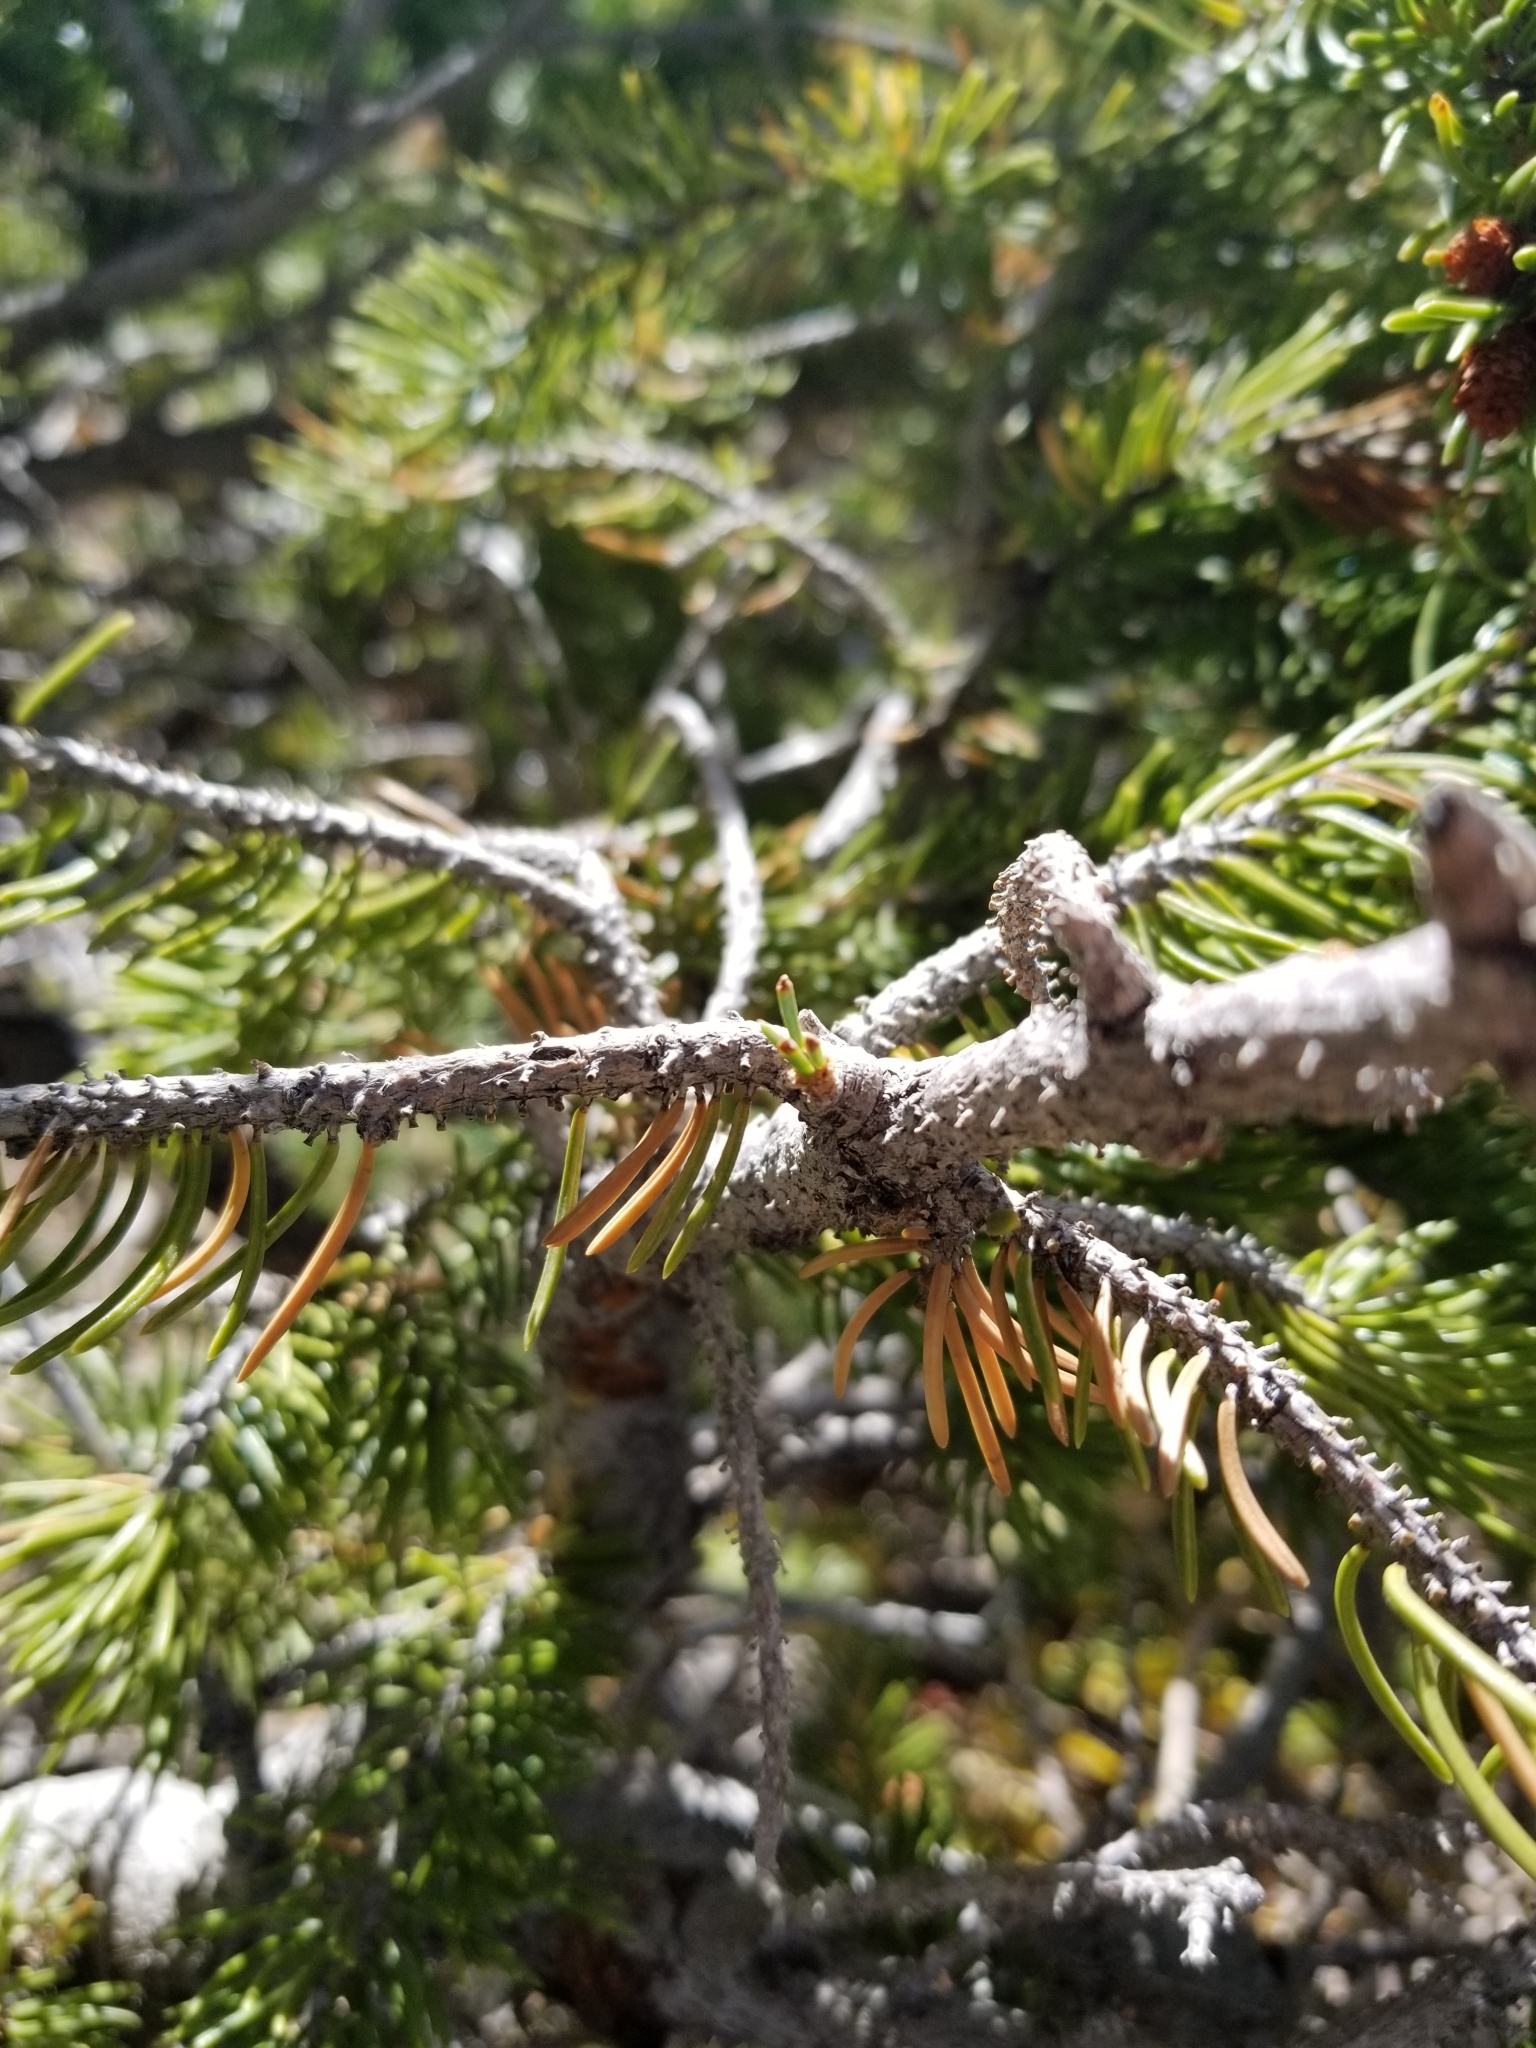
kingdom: Plantae
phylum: Tracheophyta
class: Pinopsida
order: Pinales
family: Pinaceae
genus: Picea
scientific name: Picea engelmannii
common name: Engelmann spruce
